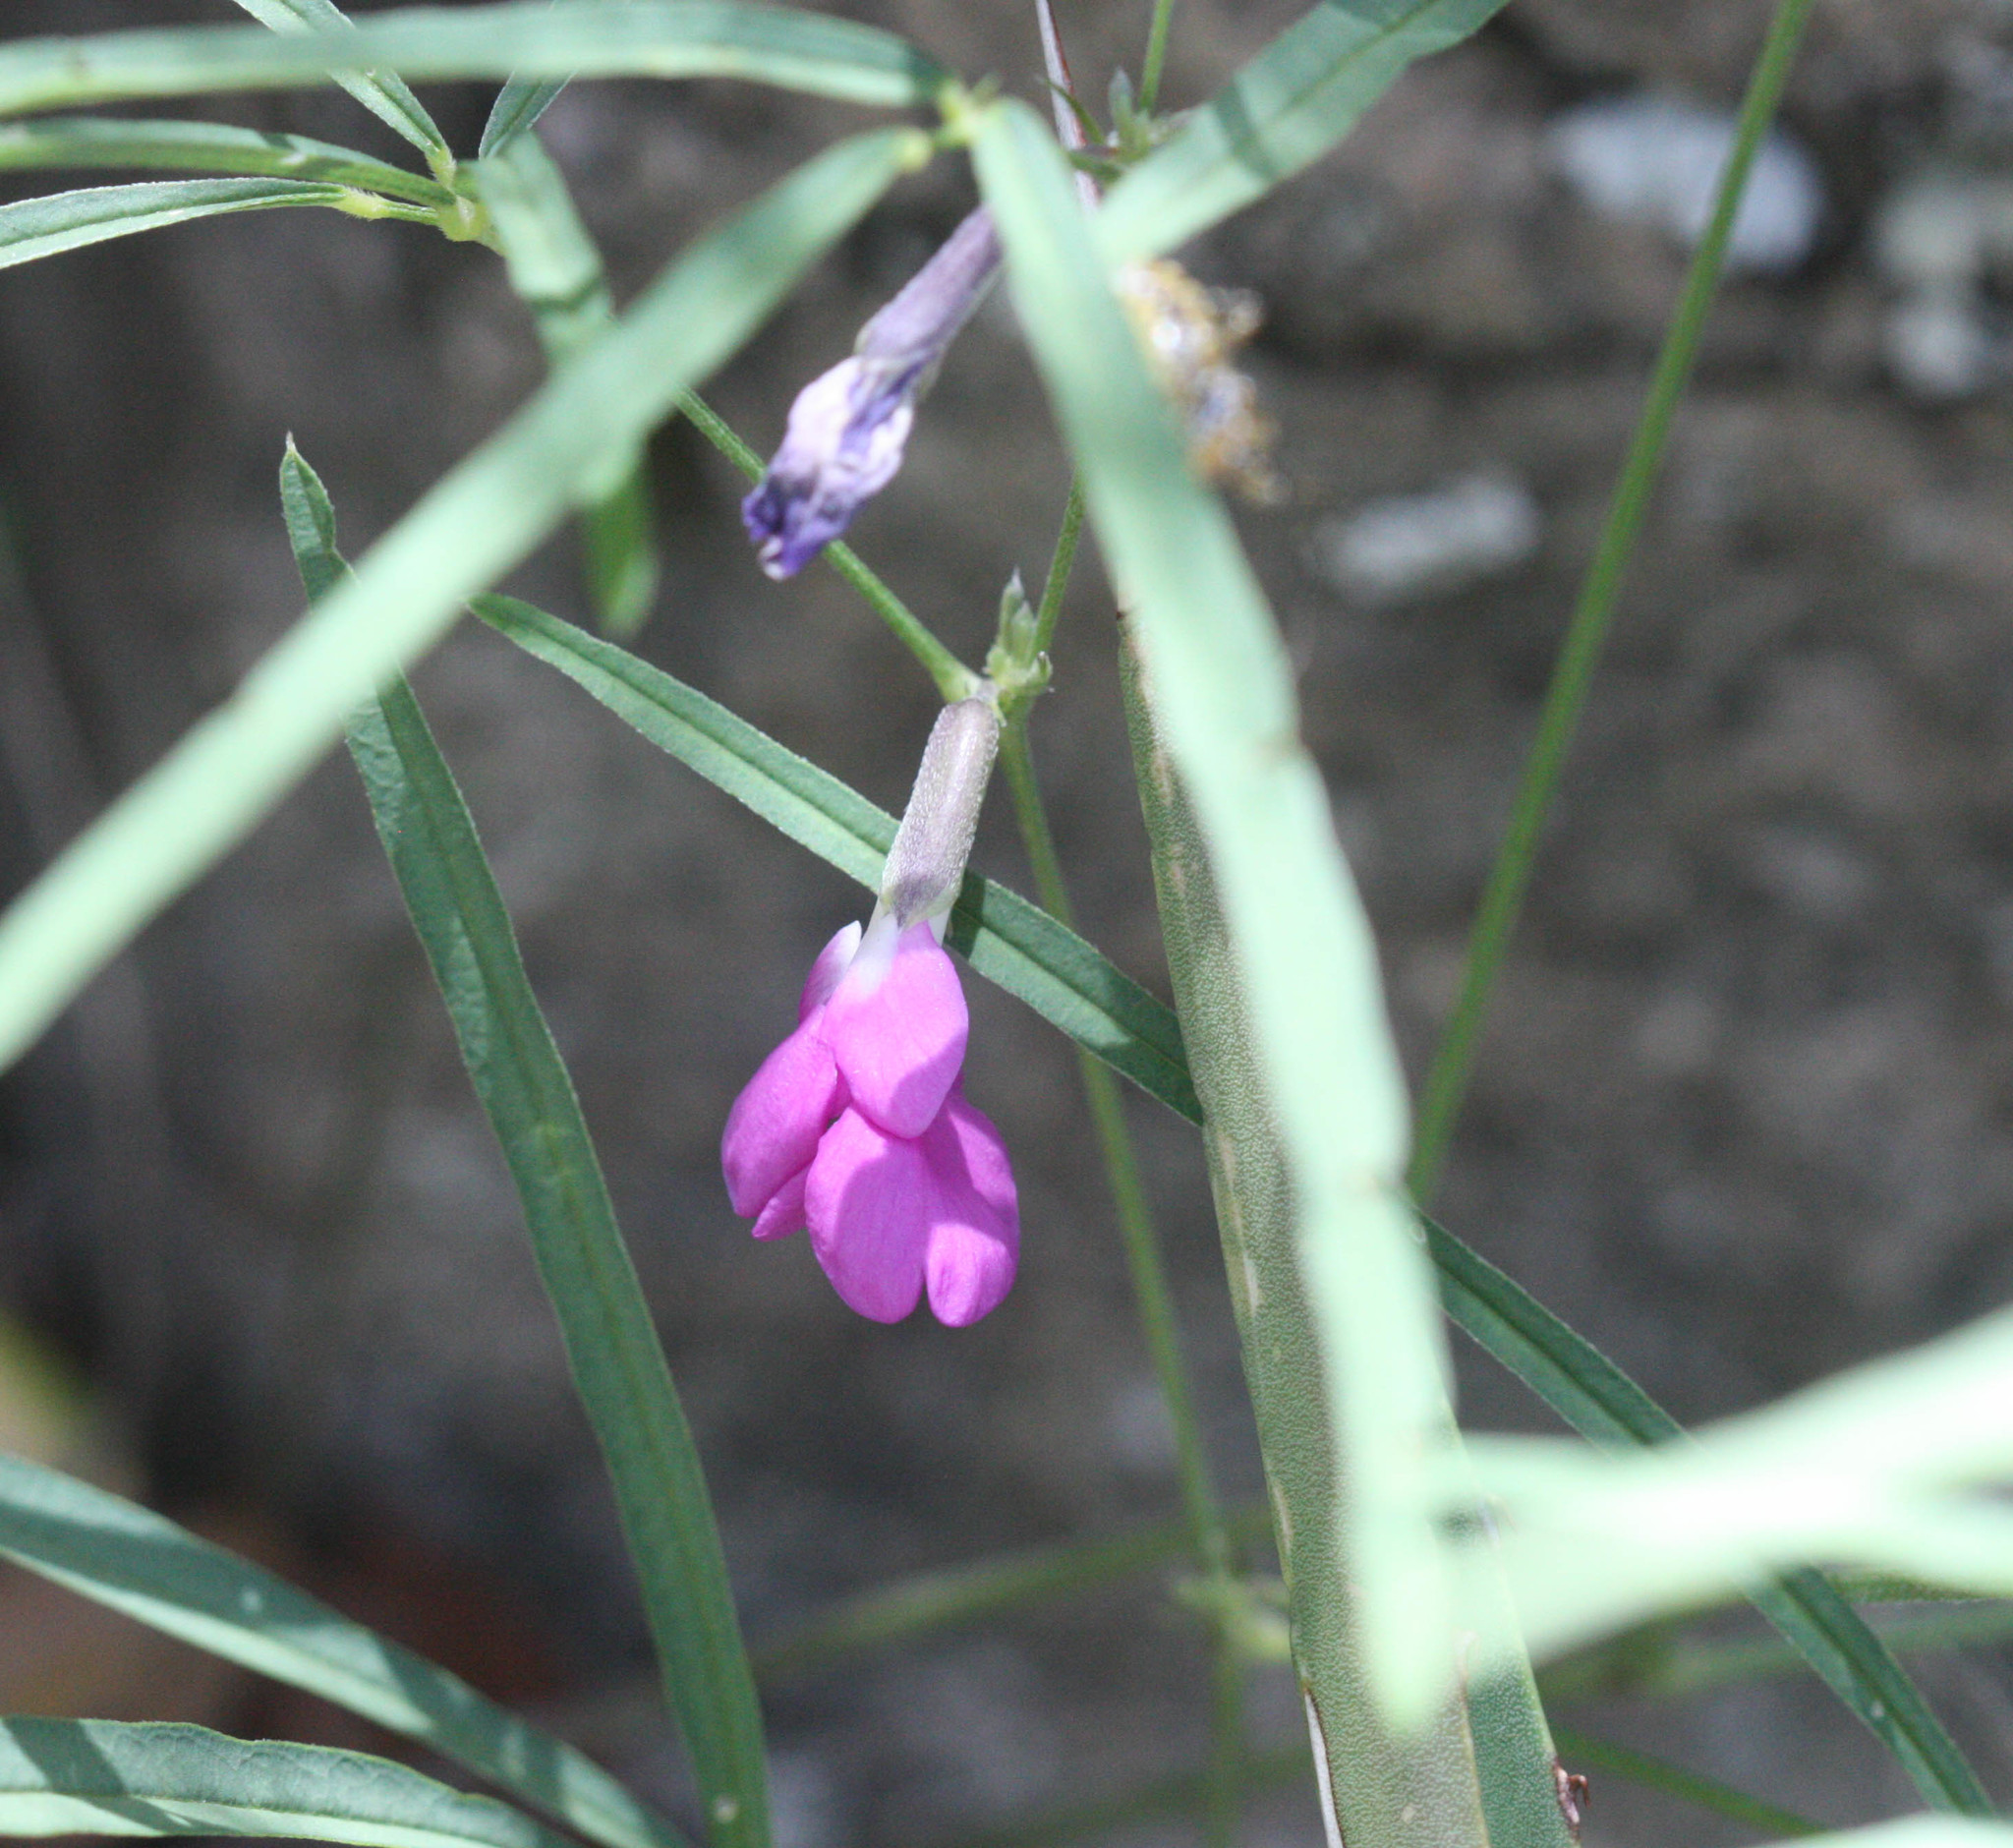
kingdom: Plantae
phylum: Tracheophyta
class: Magnoliopsida
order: Fabales
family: Fabaceae
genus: Cologania
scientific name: Cologania angustifolia
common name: Longleaf cologania
